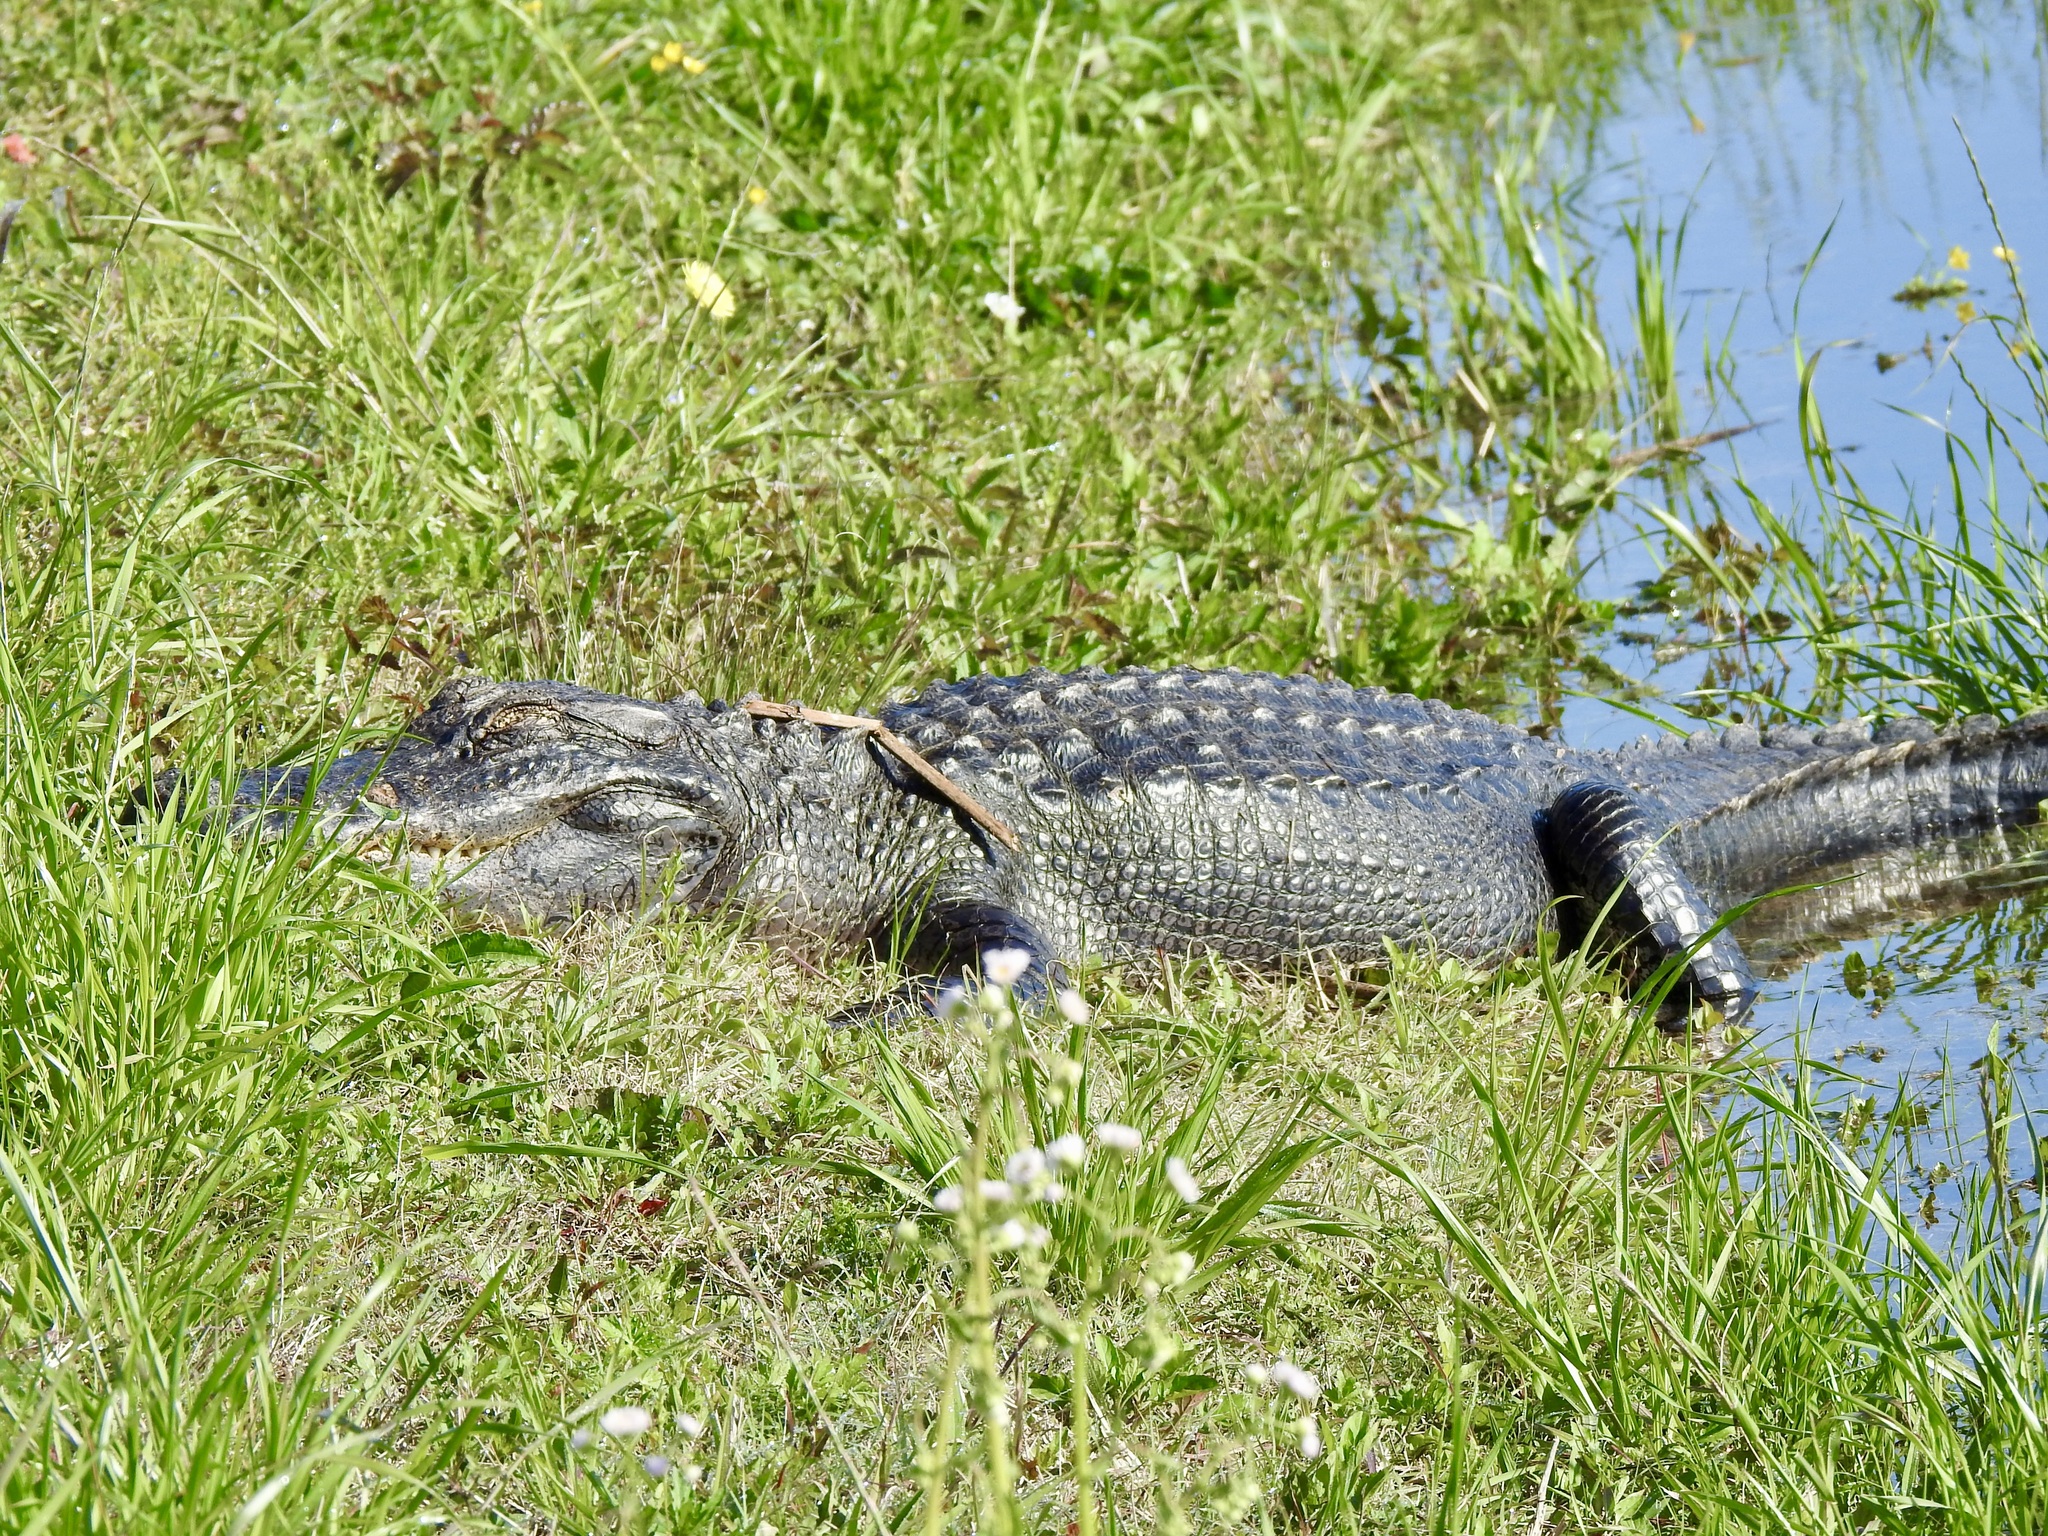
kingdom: Animalia
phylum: Chordata
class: Crocodylia
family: Alligatoridae
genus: Alligator
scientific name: Alligator mississippiensis
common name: American alligator
